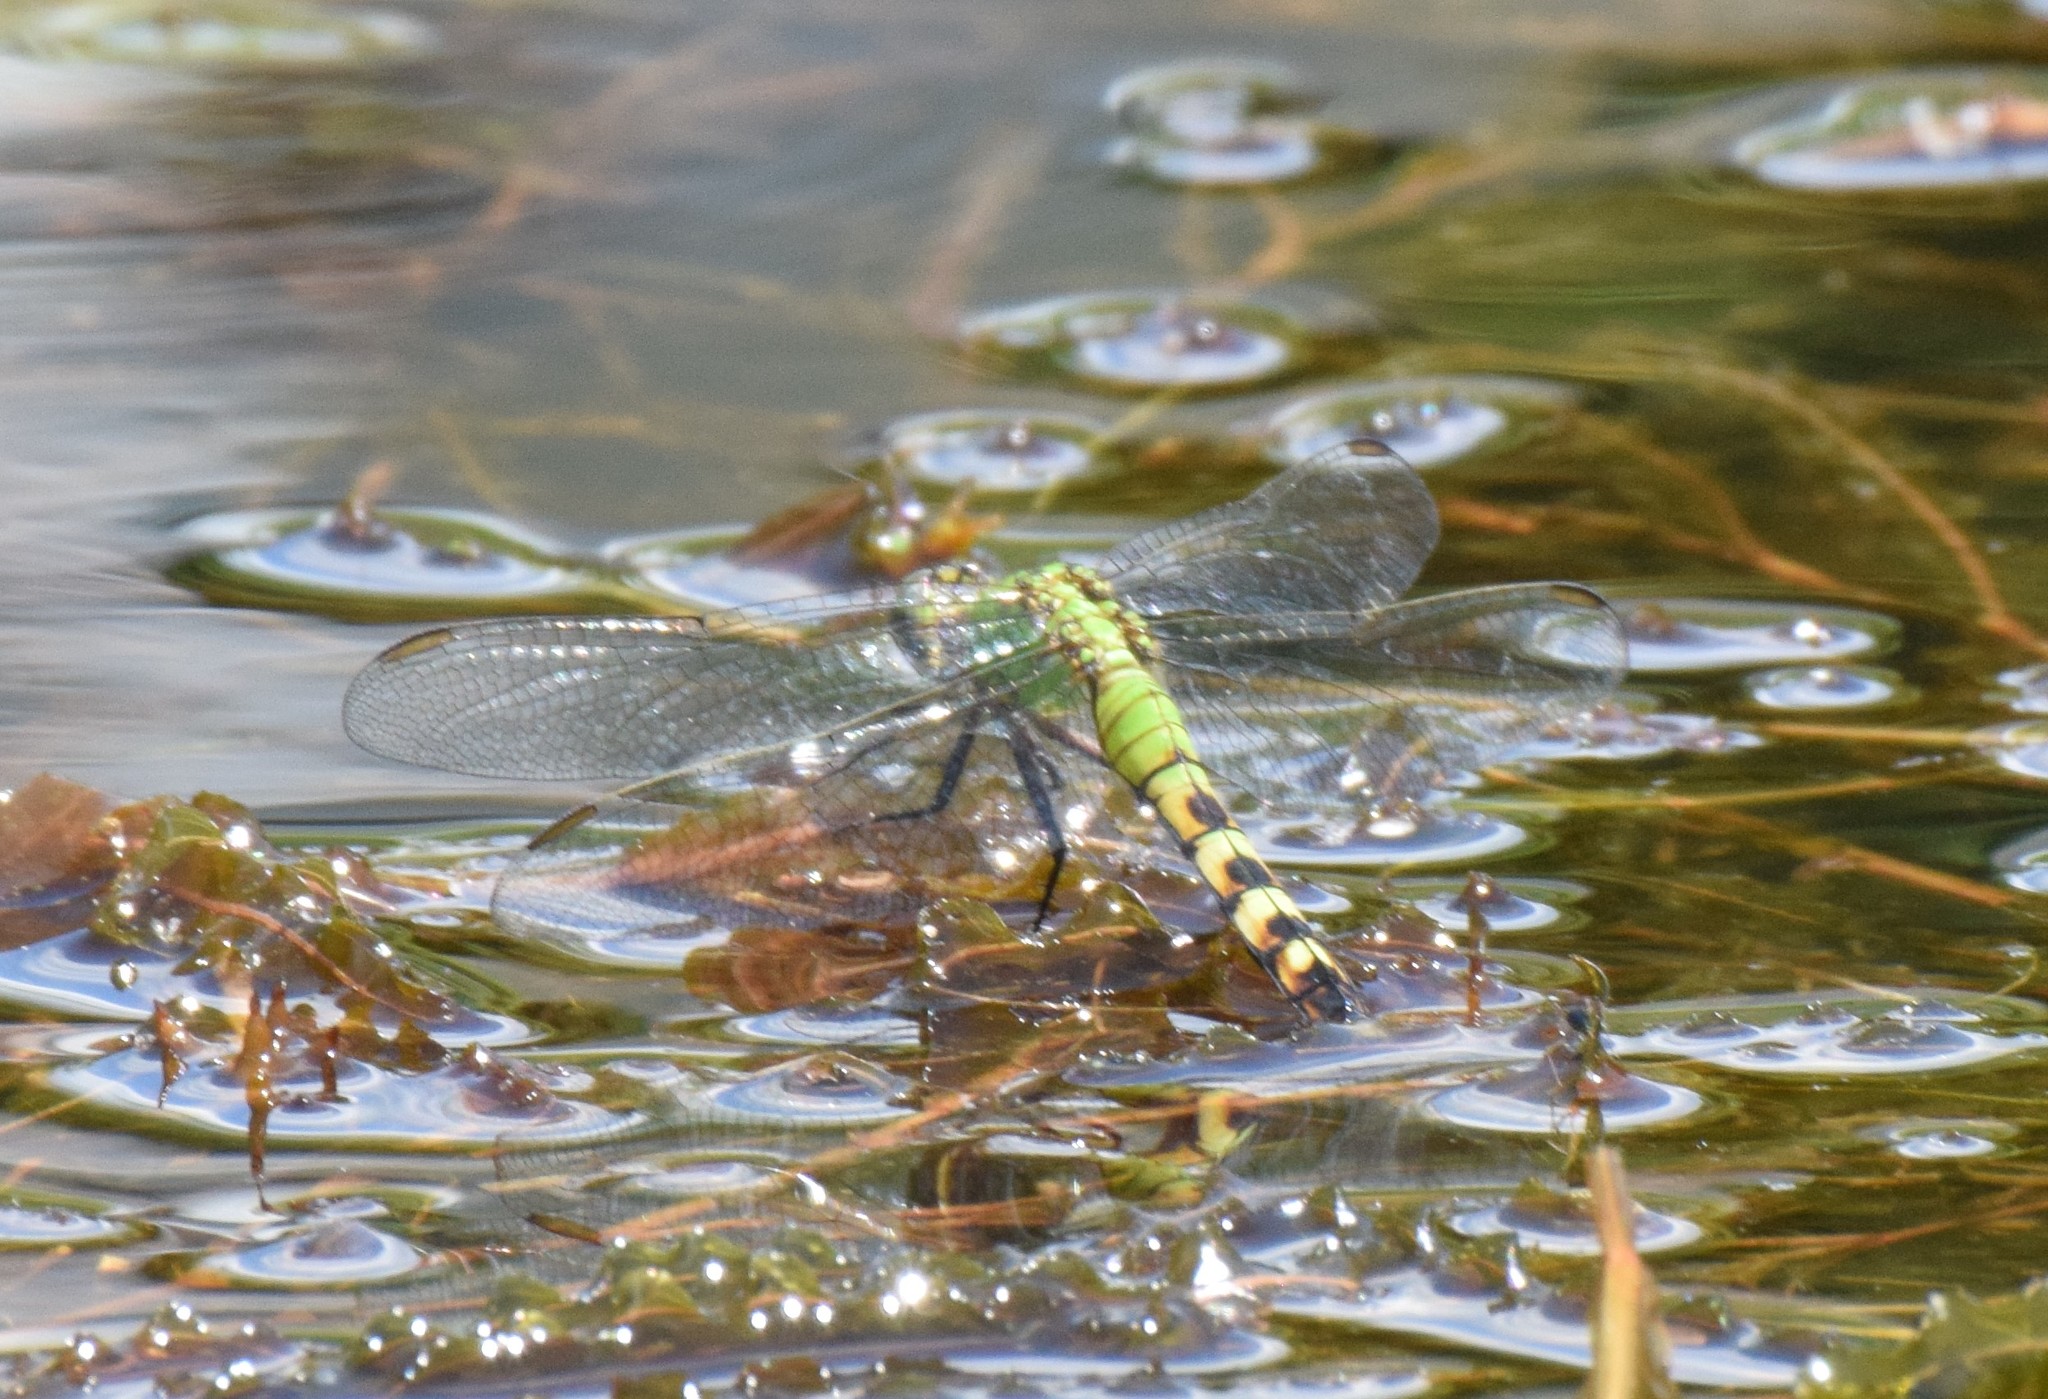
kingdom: Animalia
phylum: Arthropoda
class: Insecta
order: Odonata
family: Libellulidae
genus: Erythemis
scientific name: Erythemis simplicicollis
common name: Eastern pondhawk
